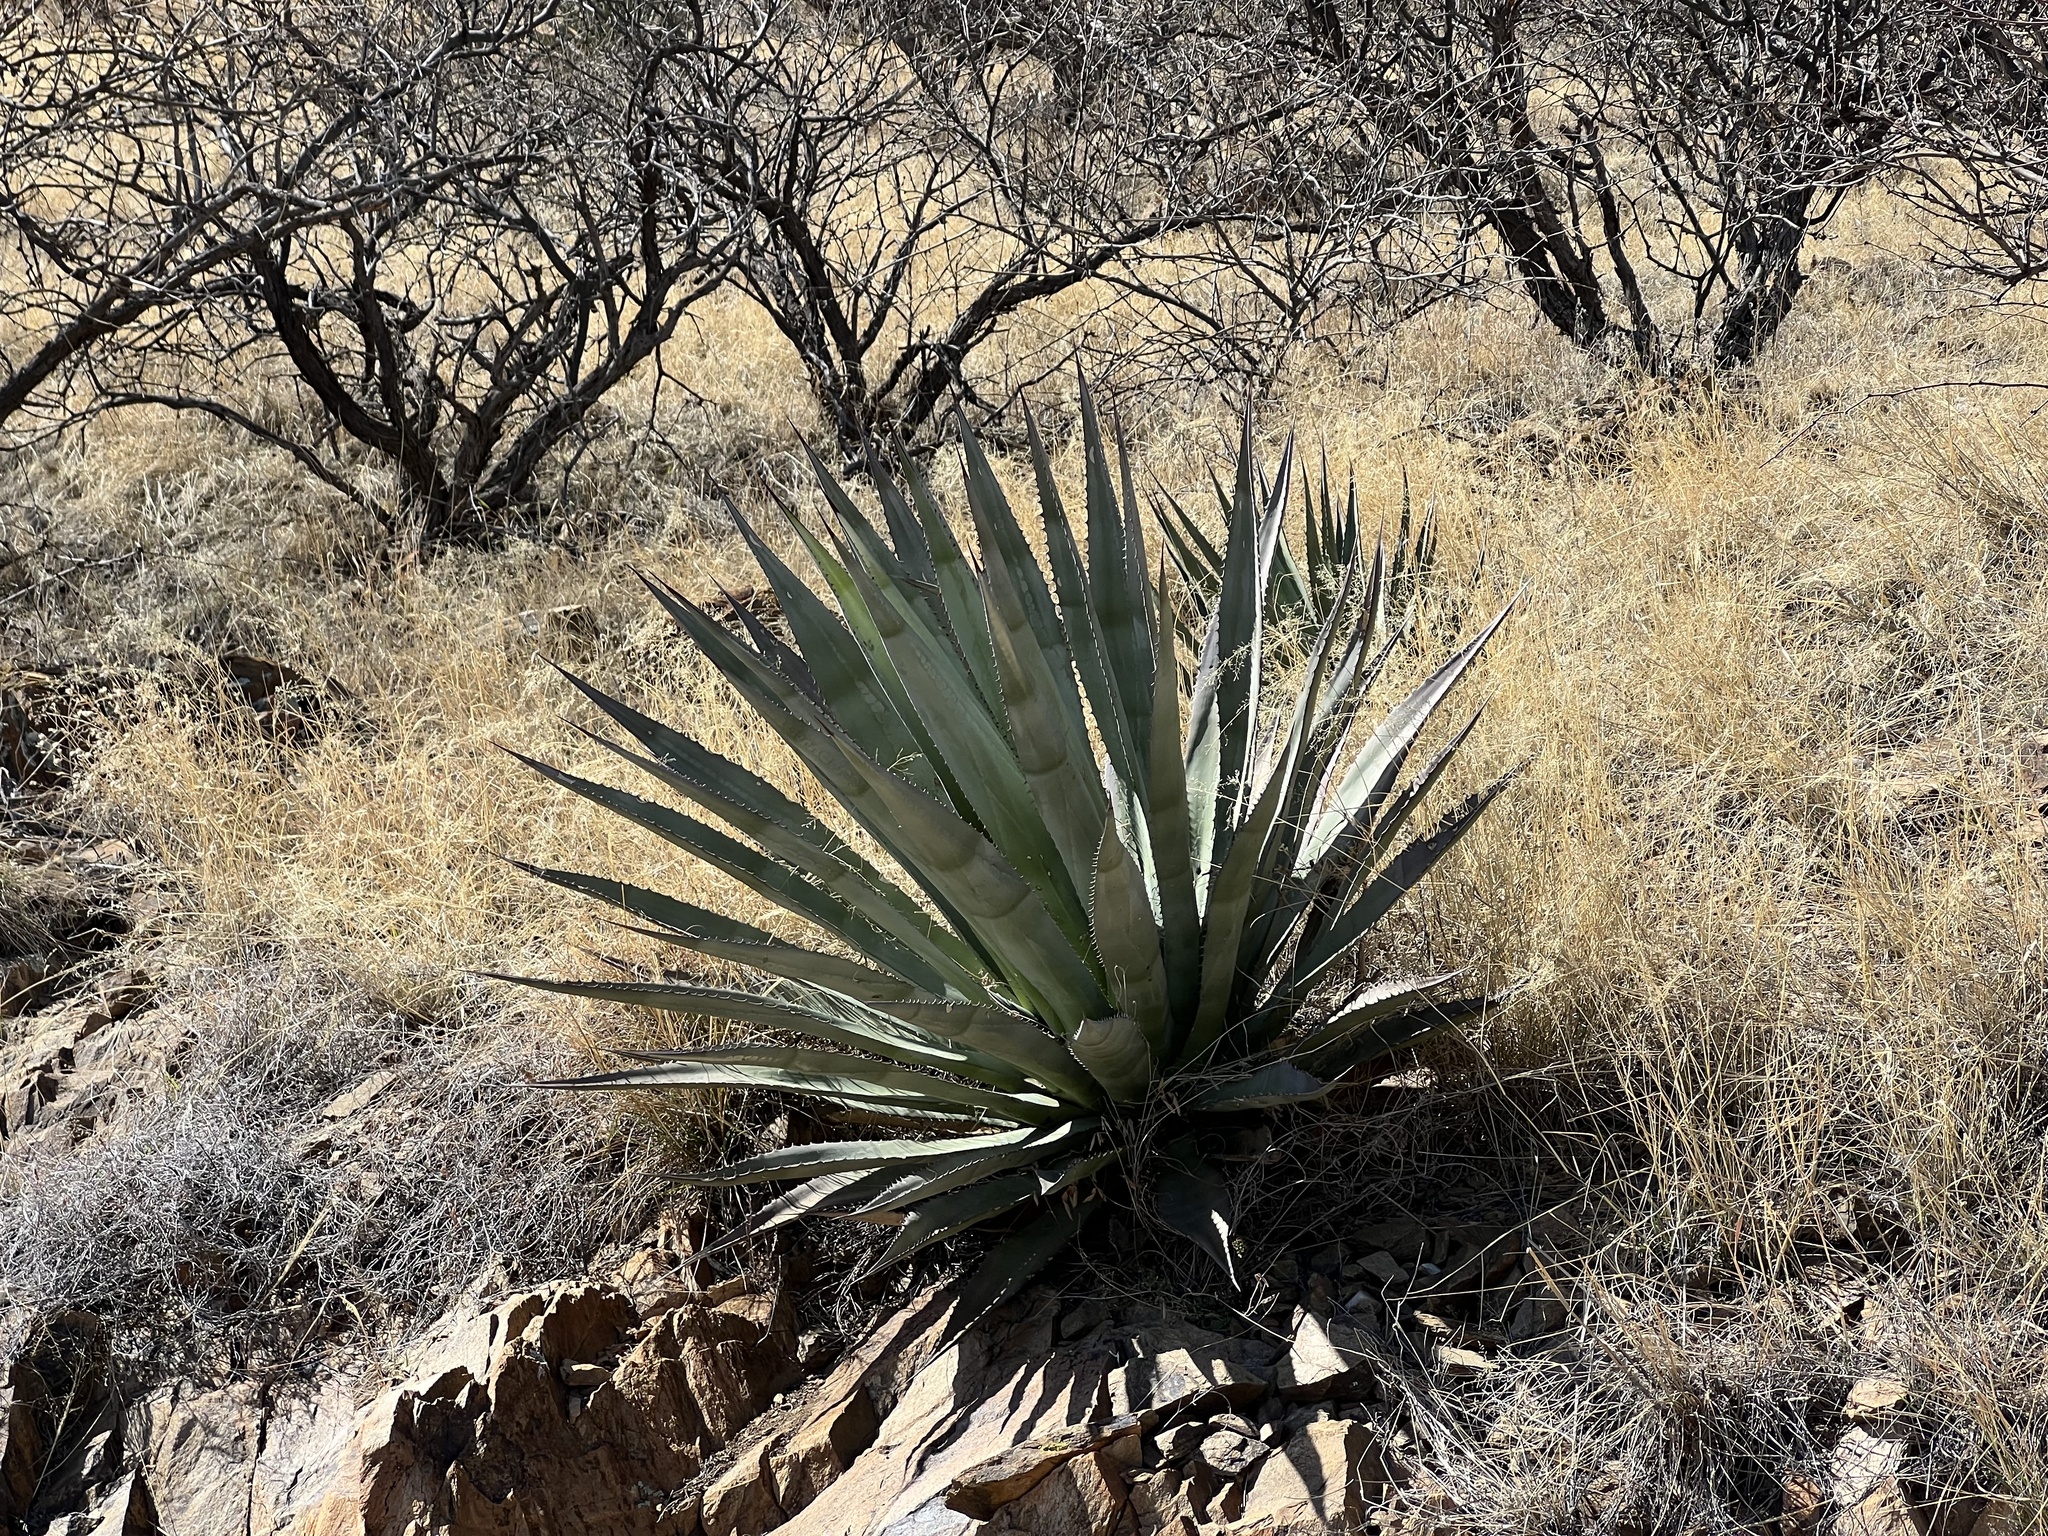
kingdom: Plantae
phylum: Tracheophyta
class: Liliopsida
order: Asparagales
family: Asparagaceae
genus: Agave
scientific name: Agave palmeri
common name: Palmer agave
